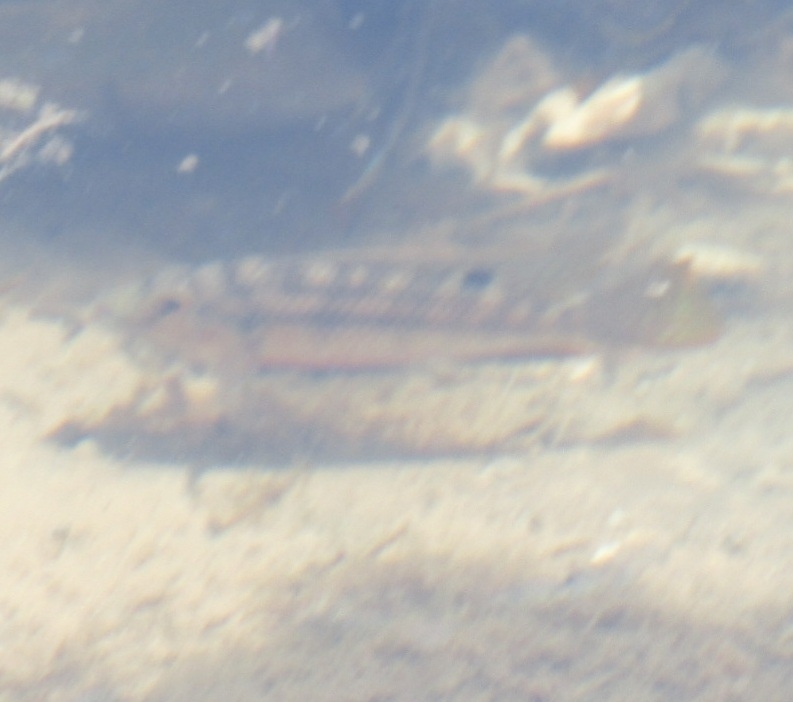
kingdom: Animalia
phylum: Chordata
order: Perciformes
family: Cichlidae
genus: Coptodon
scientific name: Coptodon zillii
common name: Redbelly tilapia
